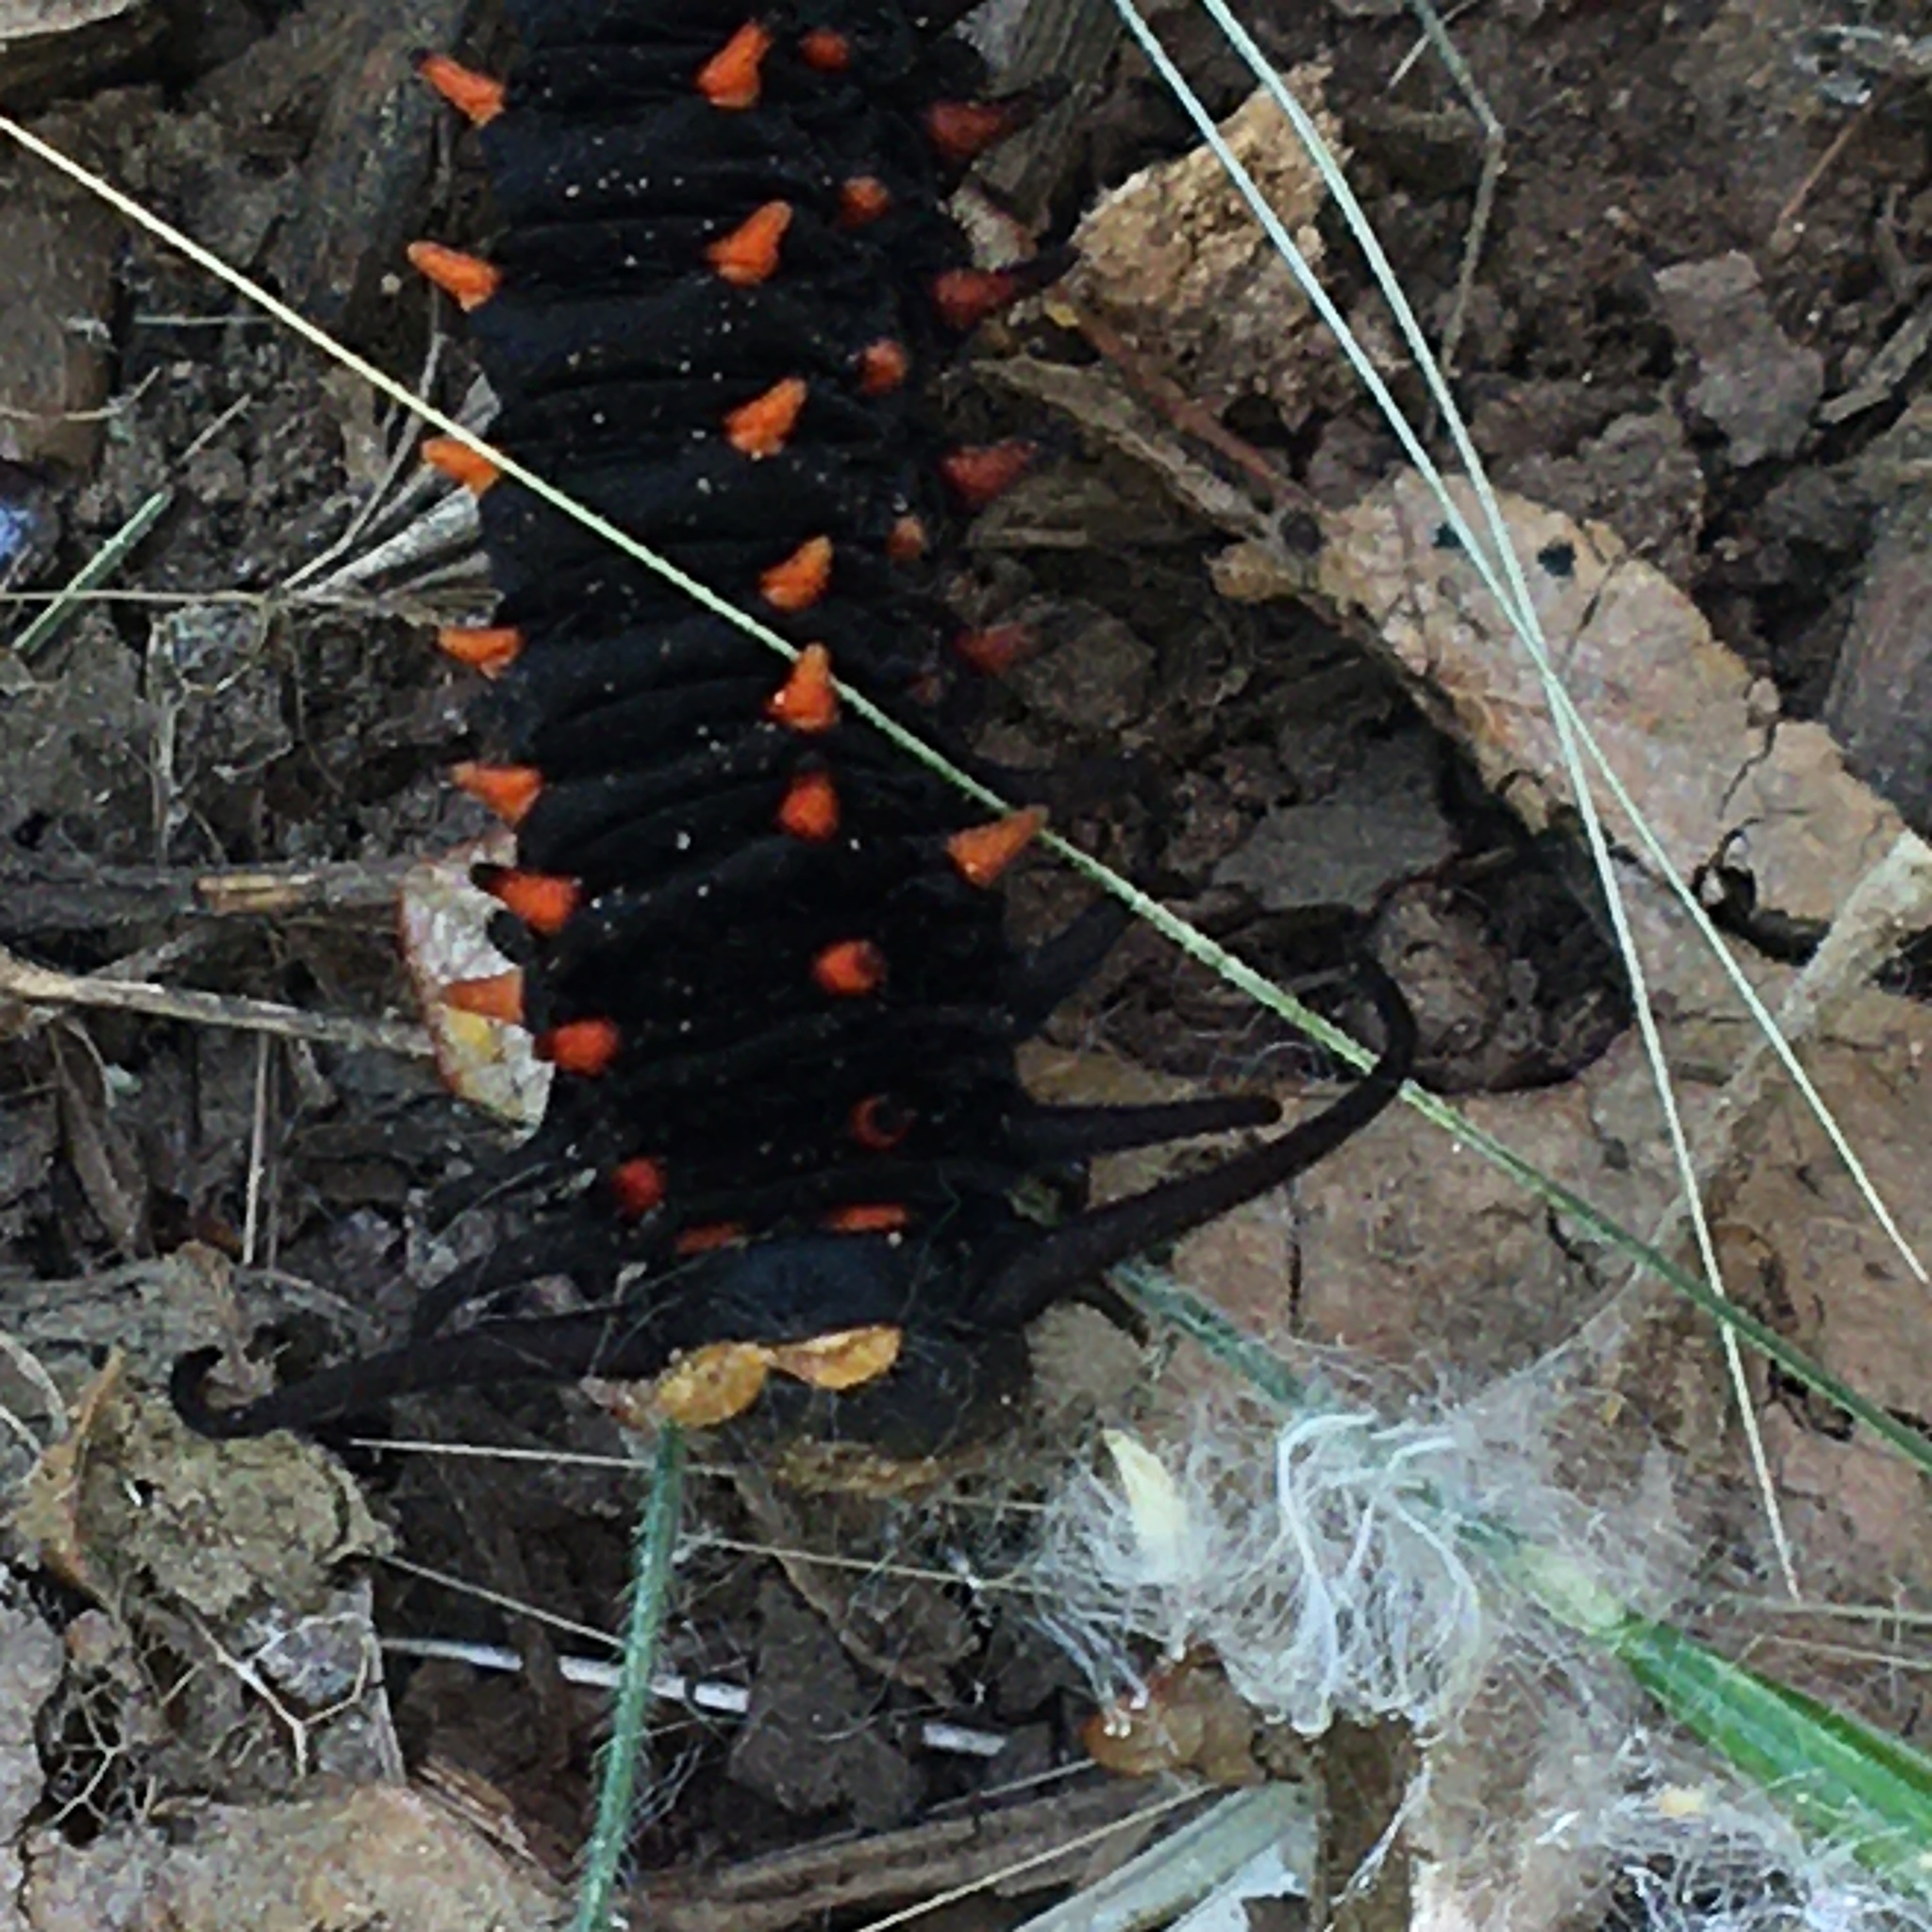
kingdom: Animalia
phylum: Arthropoda
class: Insecta
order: Lepidoptera
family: Papilionidae
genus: Battus
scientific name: Battus philenor
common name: Pipevine swallowtail
